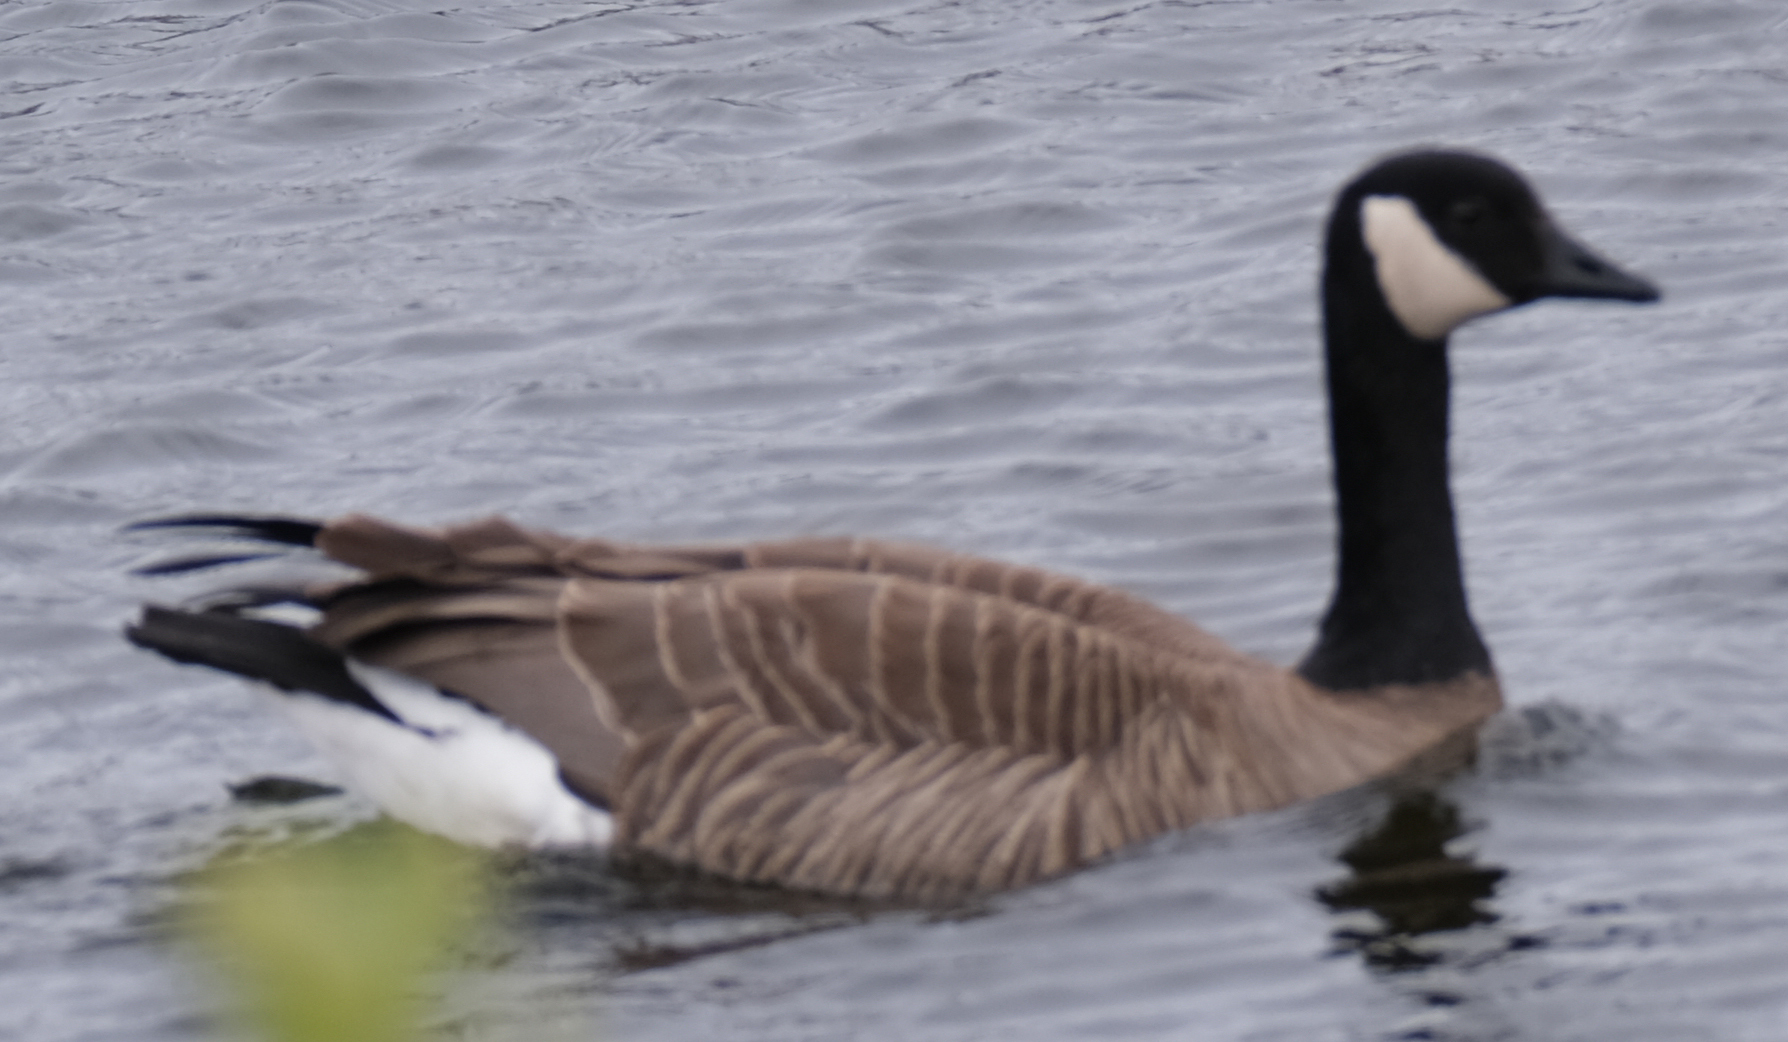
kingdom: Animalia
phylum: Chordata
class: Aves
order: Anseriformes
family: Anatidae
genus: Branta
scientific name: Branta canadensis
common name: Canada goose
